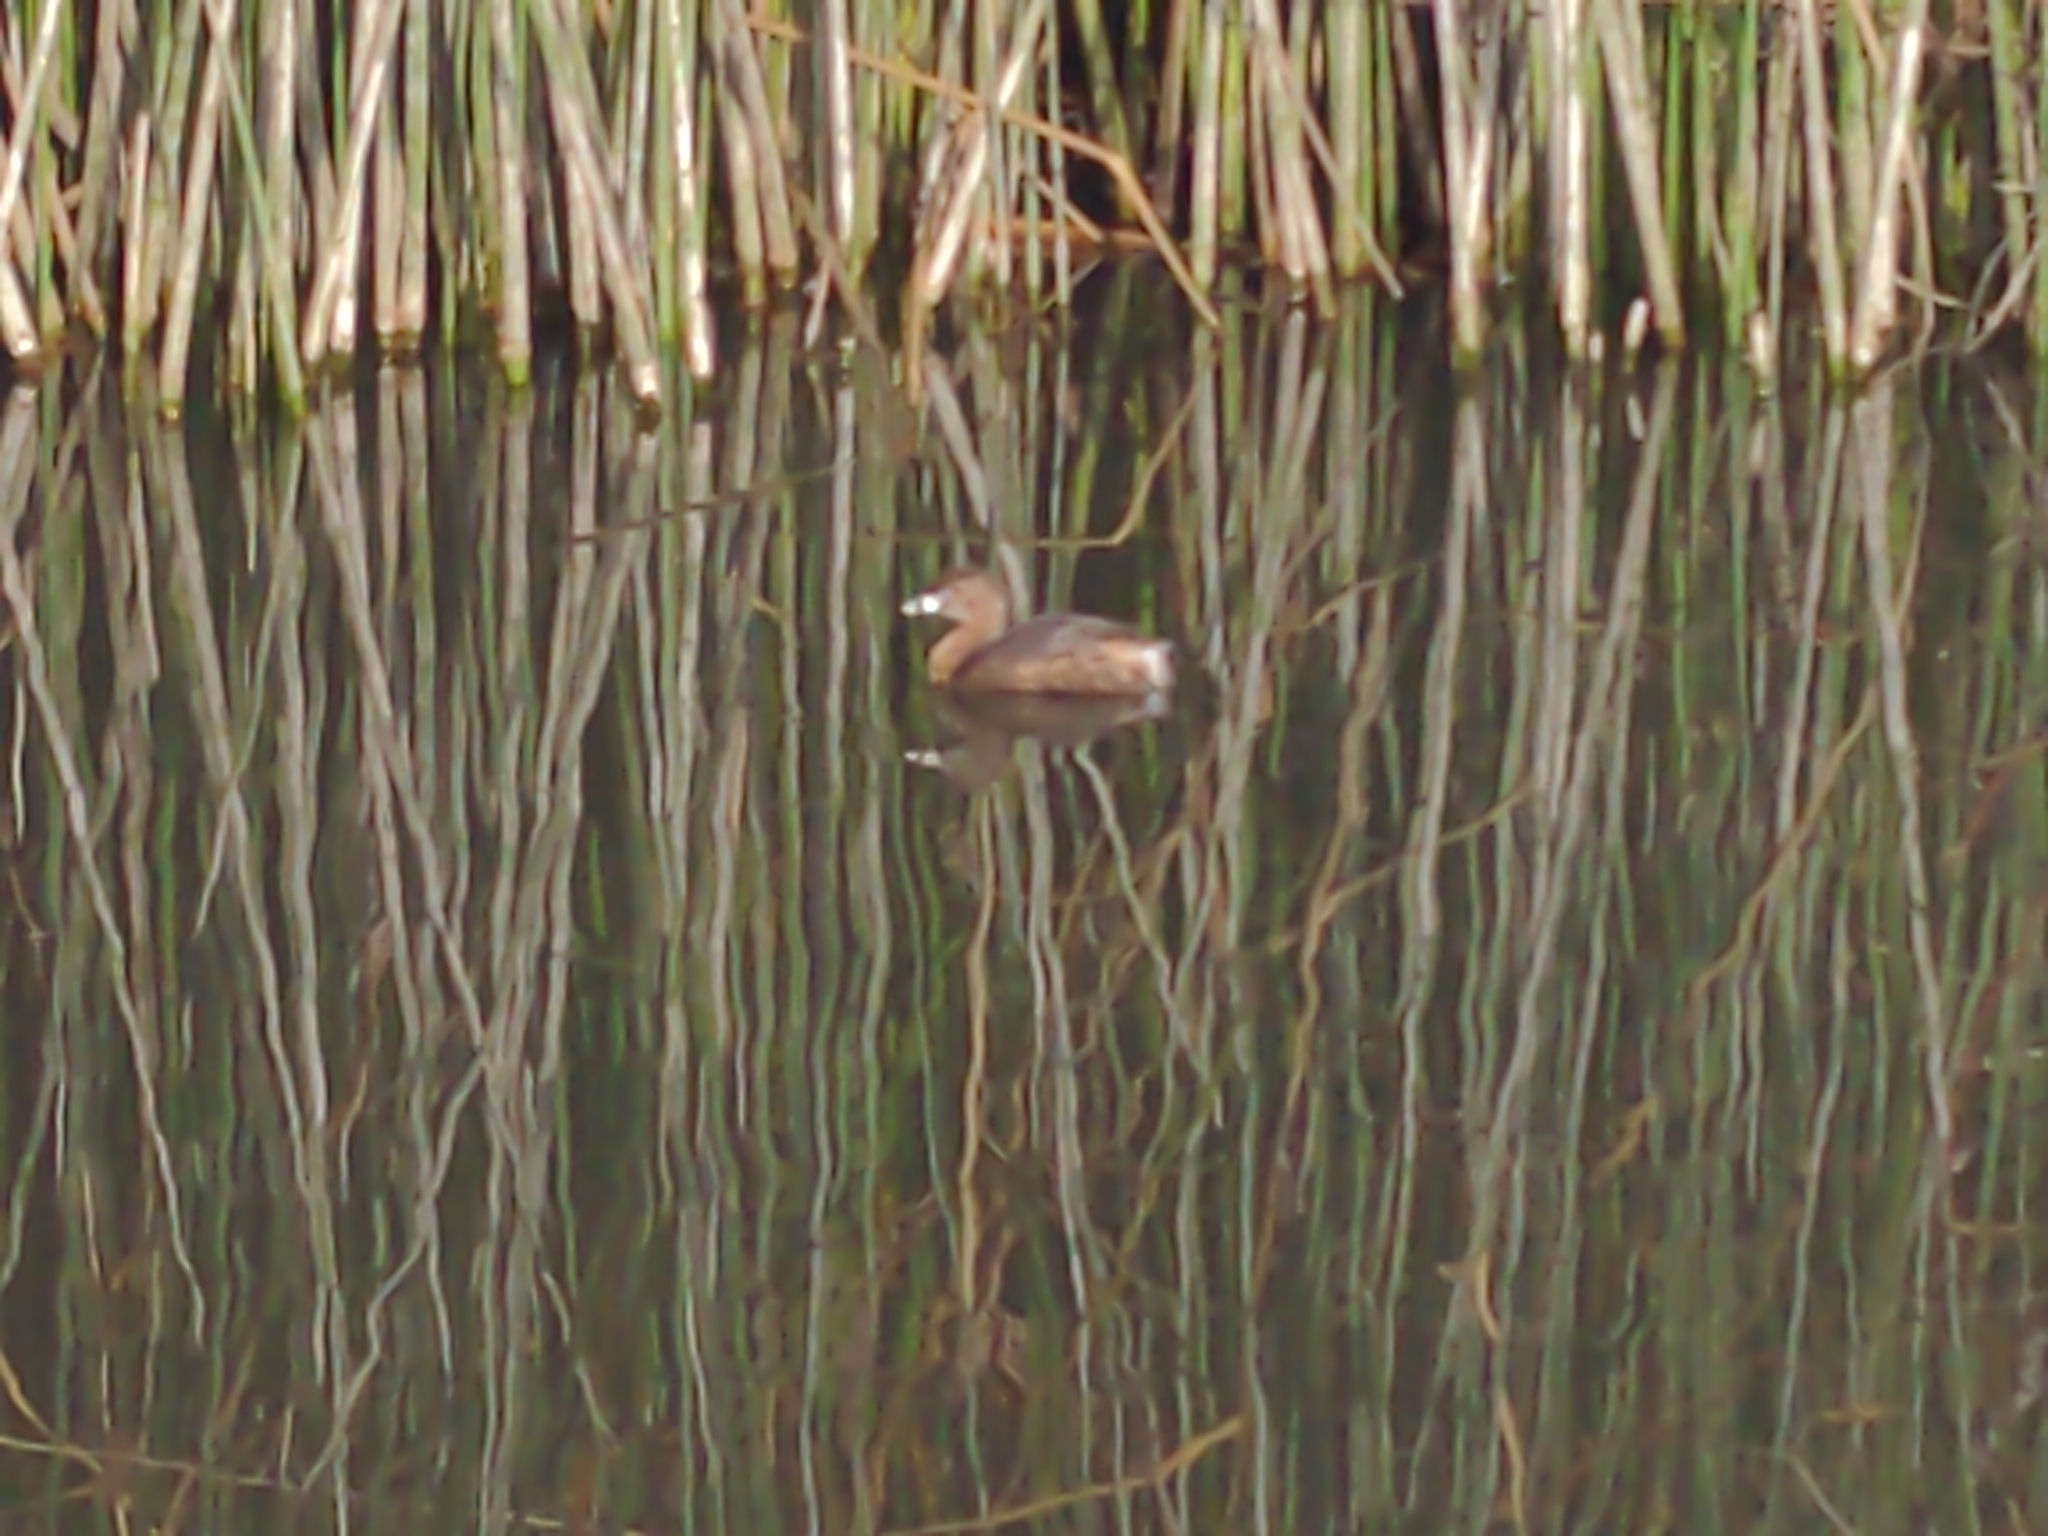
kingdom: Animalia
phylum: Chordata
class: Aves
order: Podicipediformes
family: Podicipedidae
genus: Podilymbus
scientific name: Podilymbus podiceps
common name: Pied-billed grebe
